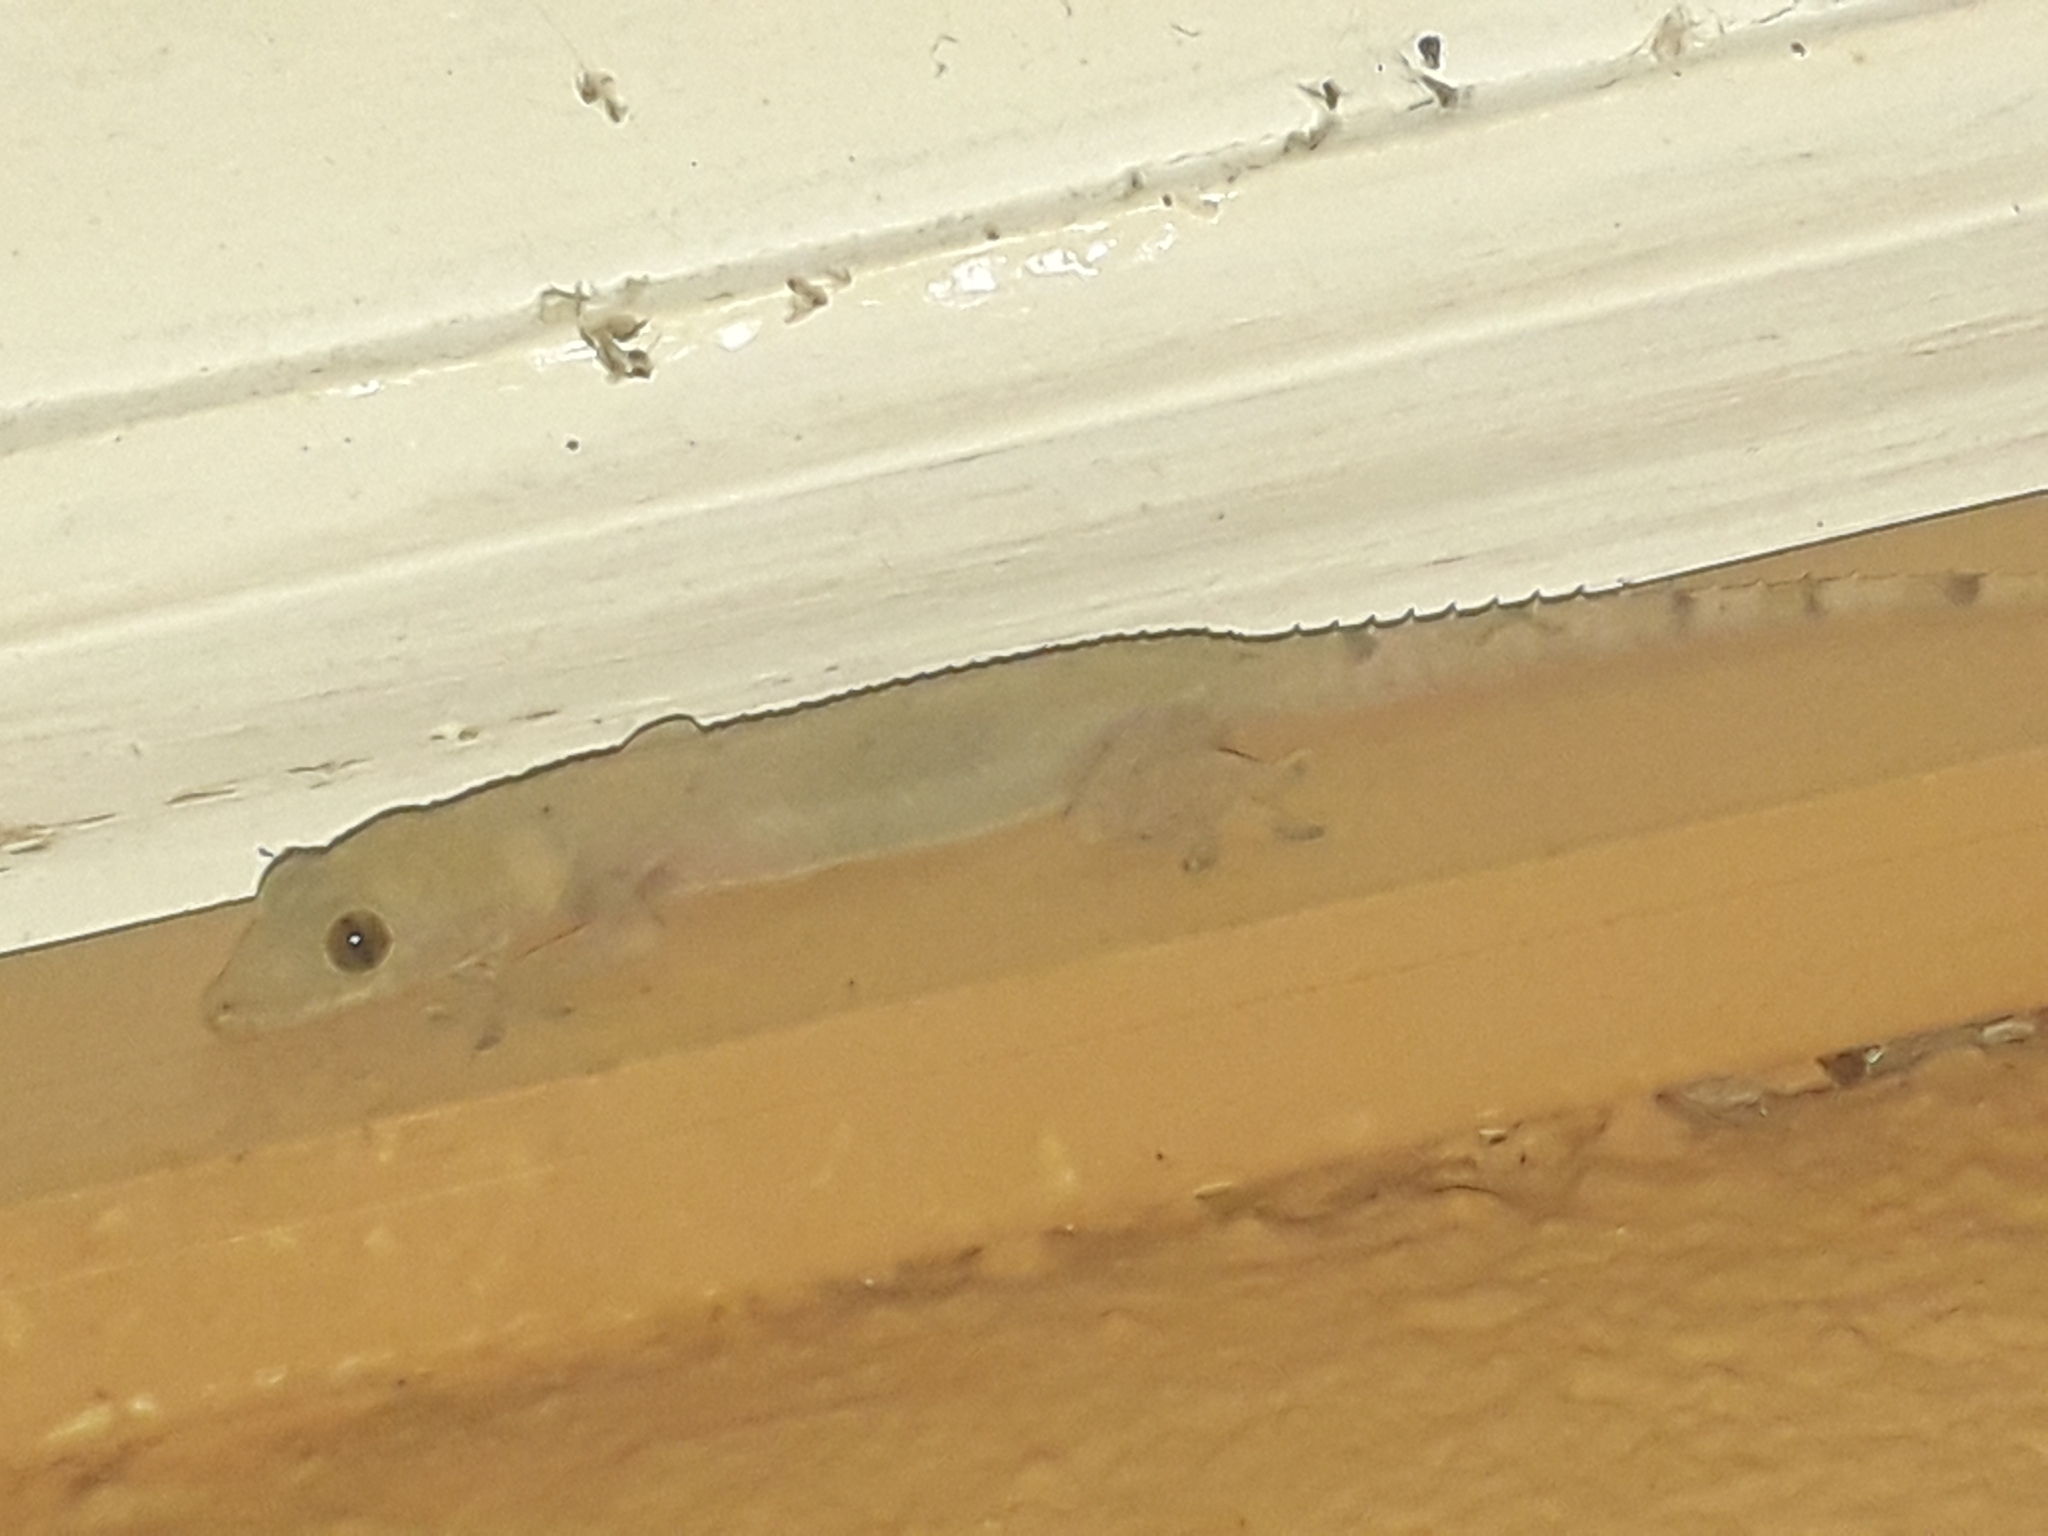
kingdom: Animalia
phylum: Chordata
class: Squamata
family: Gekkonidae
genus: Hemidactylus
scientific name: Hemidactylus mabouia
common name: House gecko
